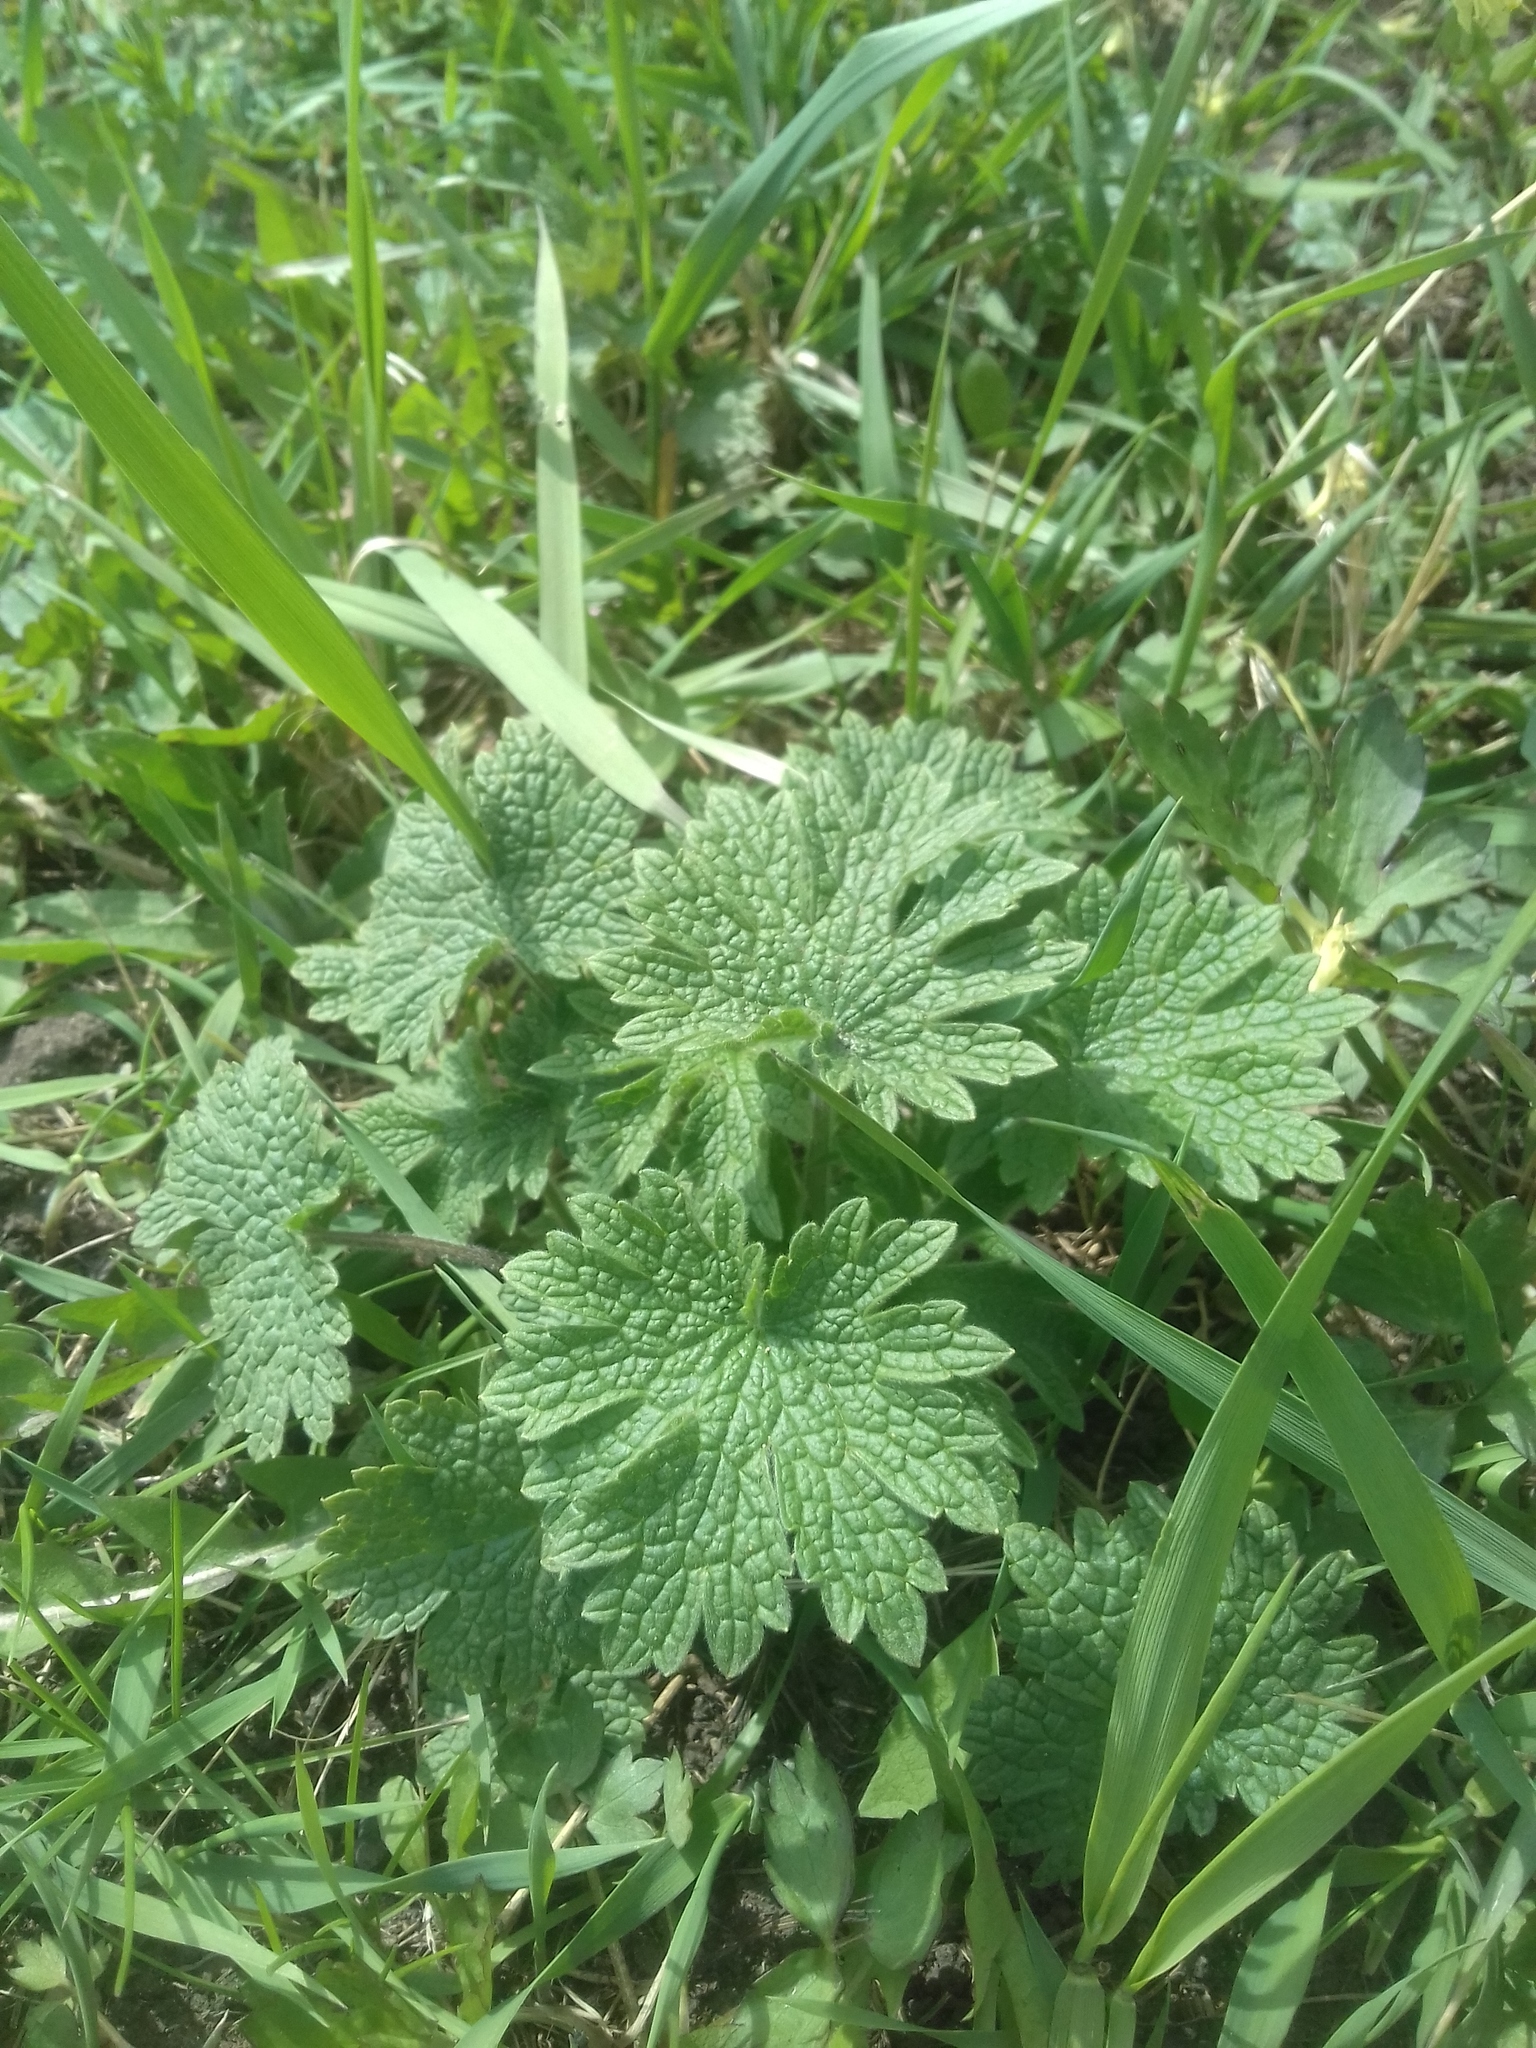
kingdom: Plantae
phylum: Tracheophyta
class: Magnoliopsida
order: Lamiales
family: Lamiaceae
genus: Leonurus
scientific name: Leonurus quinquelobatus
